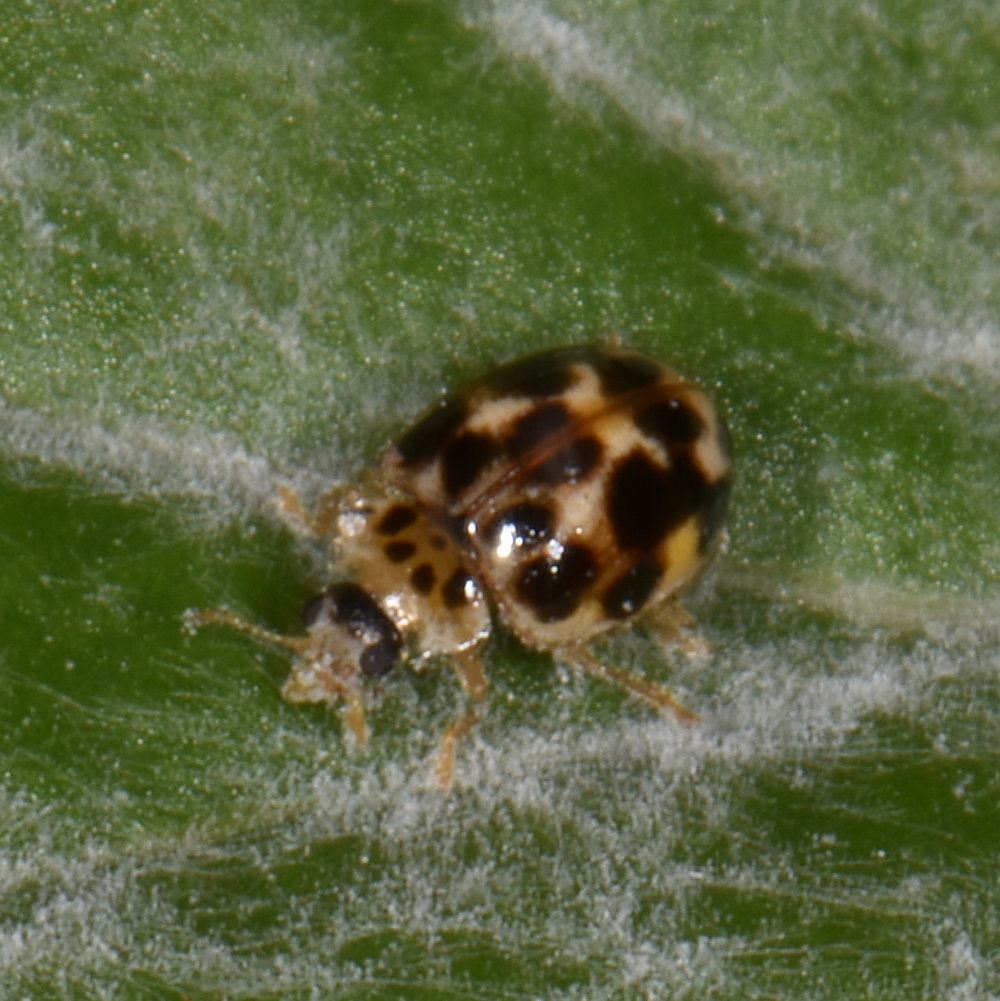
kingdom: Animalia
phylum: Arthropoda
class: Insecta
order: Coleoptera
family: Coccinellidae
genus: Psyllobora
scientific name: Psyllobora vigintimaculata
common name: Ladybird beetle
